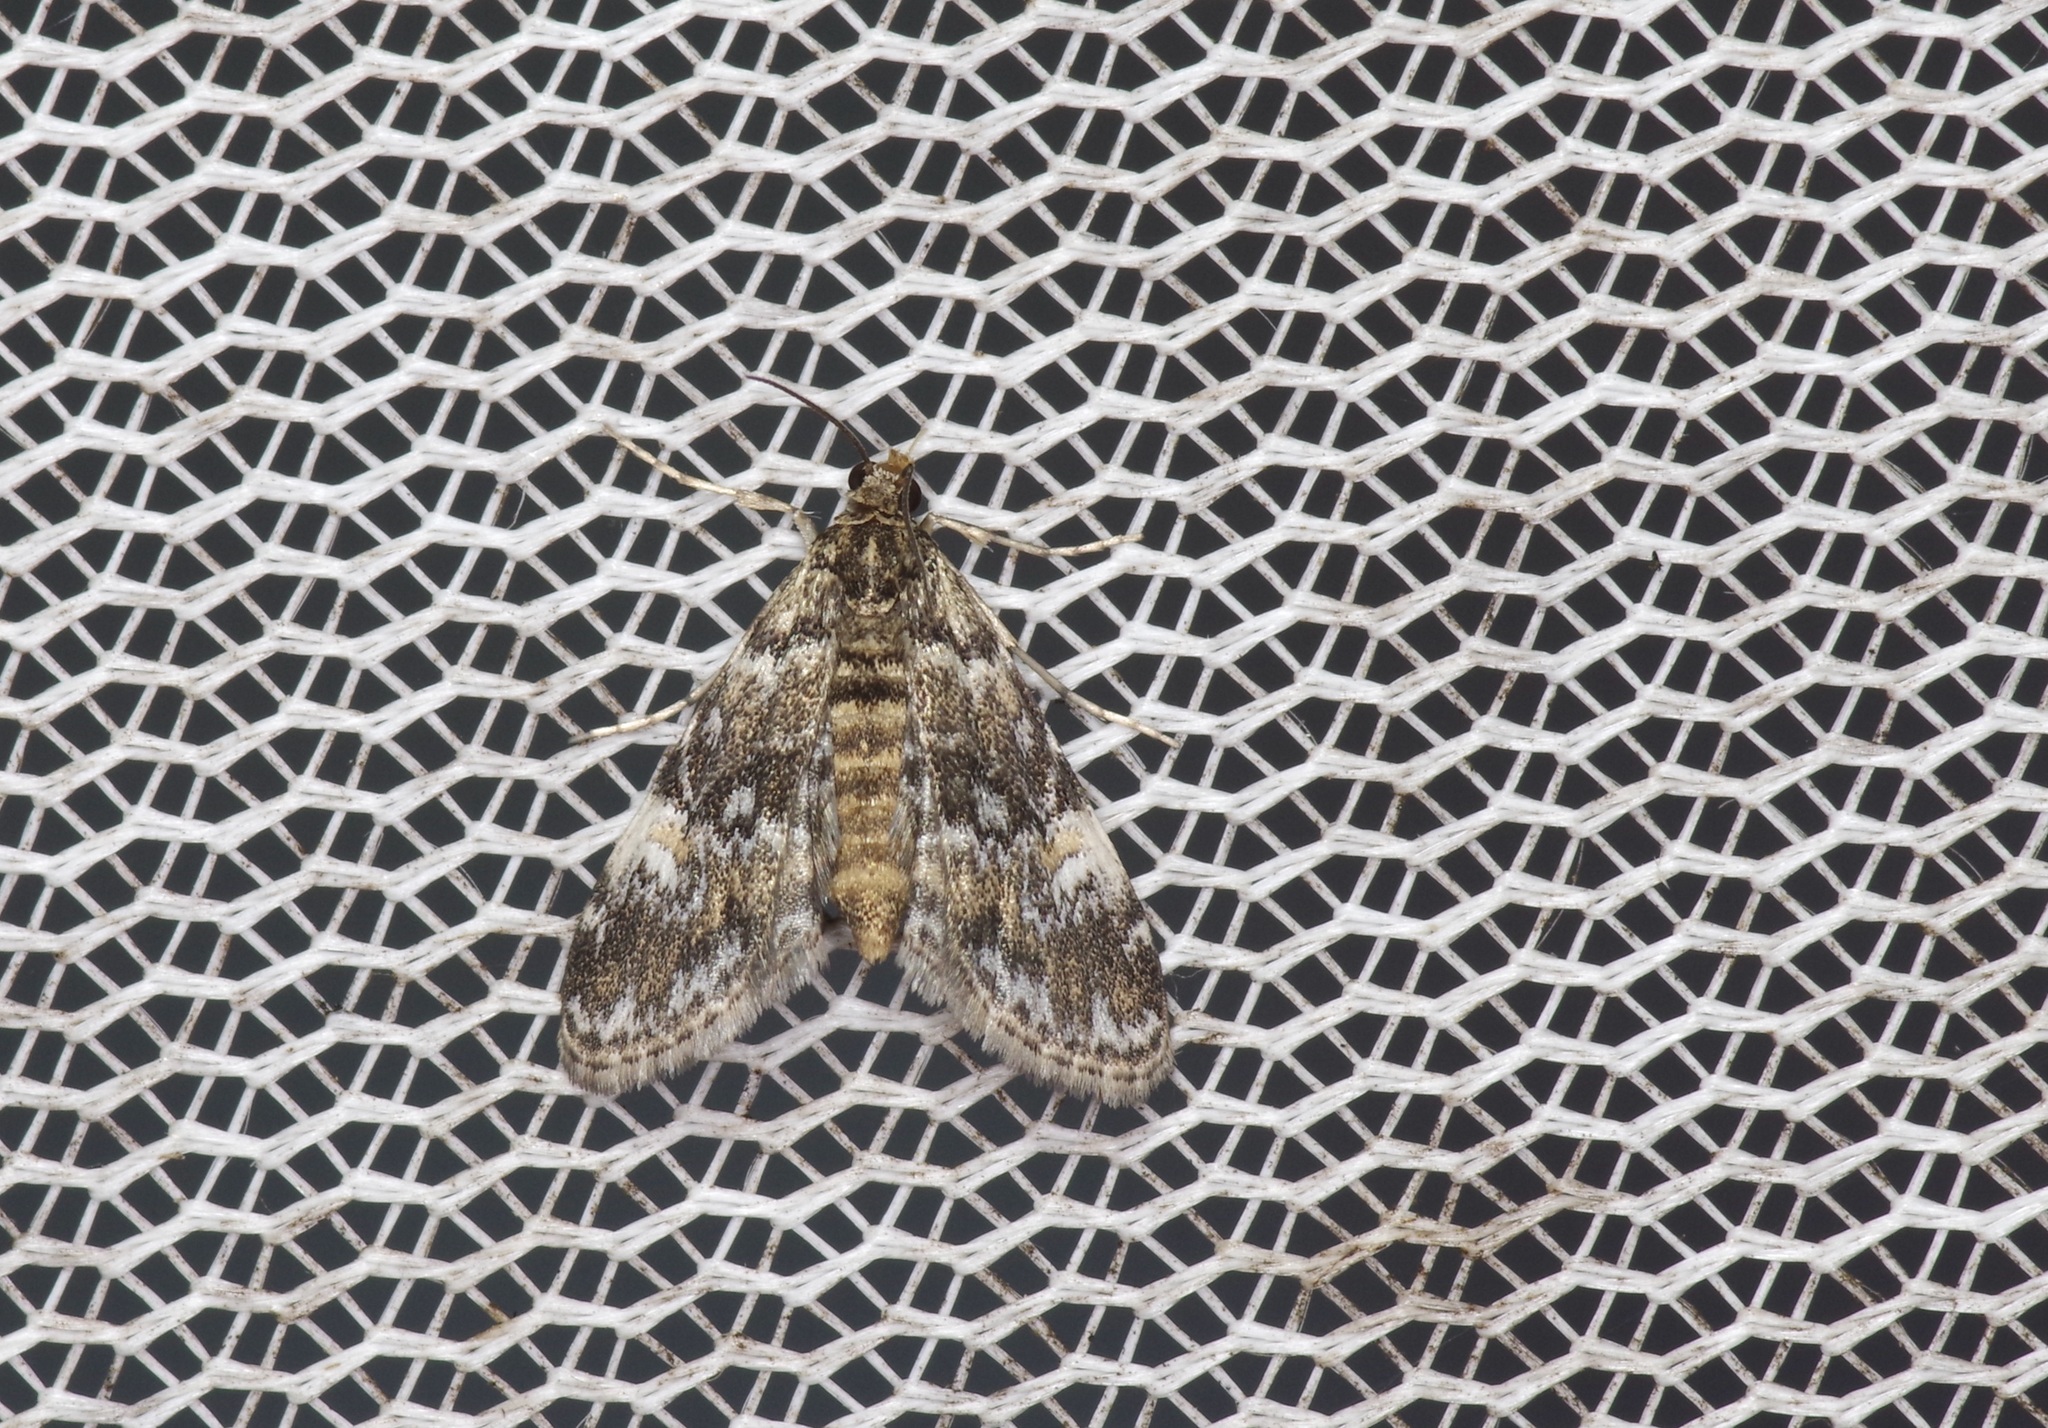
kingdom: Animalia
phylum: Arthropoda
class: Insecta
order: Lepidoptera
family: Crambidae
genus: Elophila
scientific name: Elophila obliteralis
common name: Waterlily leafcutter moth
